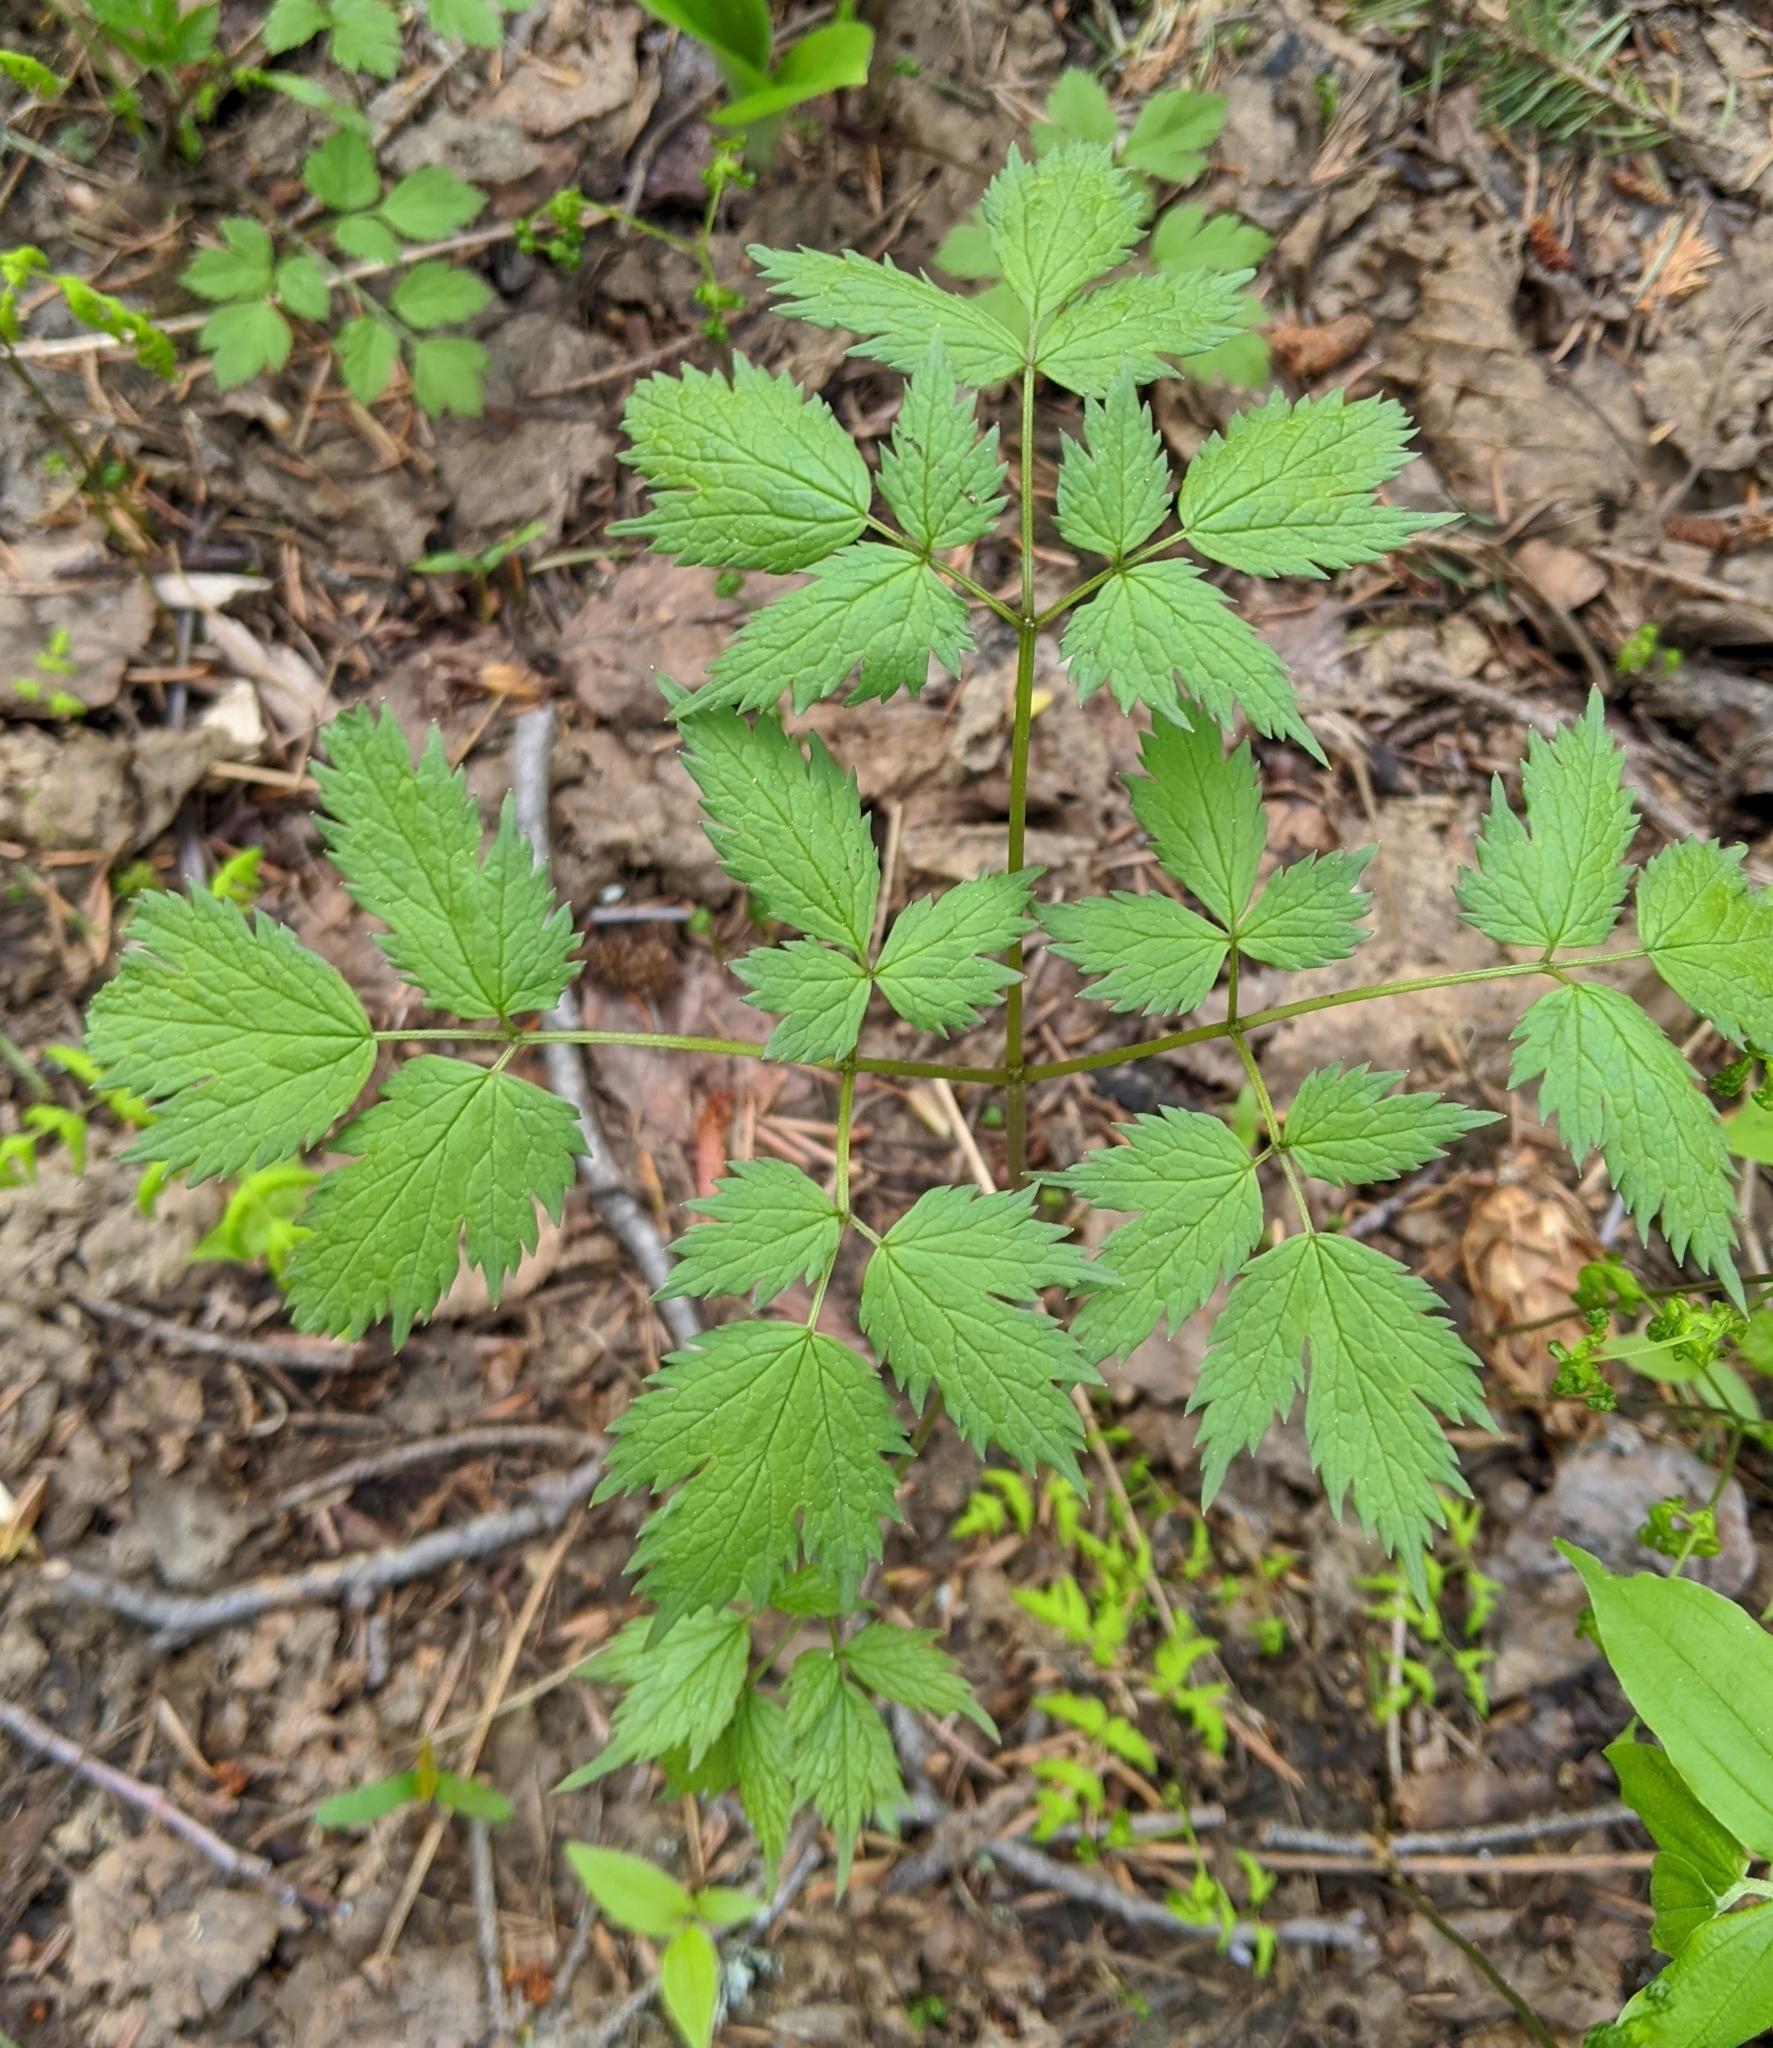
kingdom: Plantae
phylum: Tracheophyta
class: Magnoliopsida
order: Ranunculales
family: Ranunculaceae
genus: Actaea
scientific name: Actaea rubra
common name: Red baneberry
